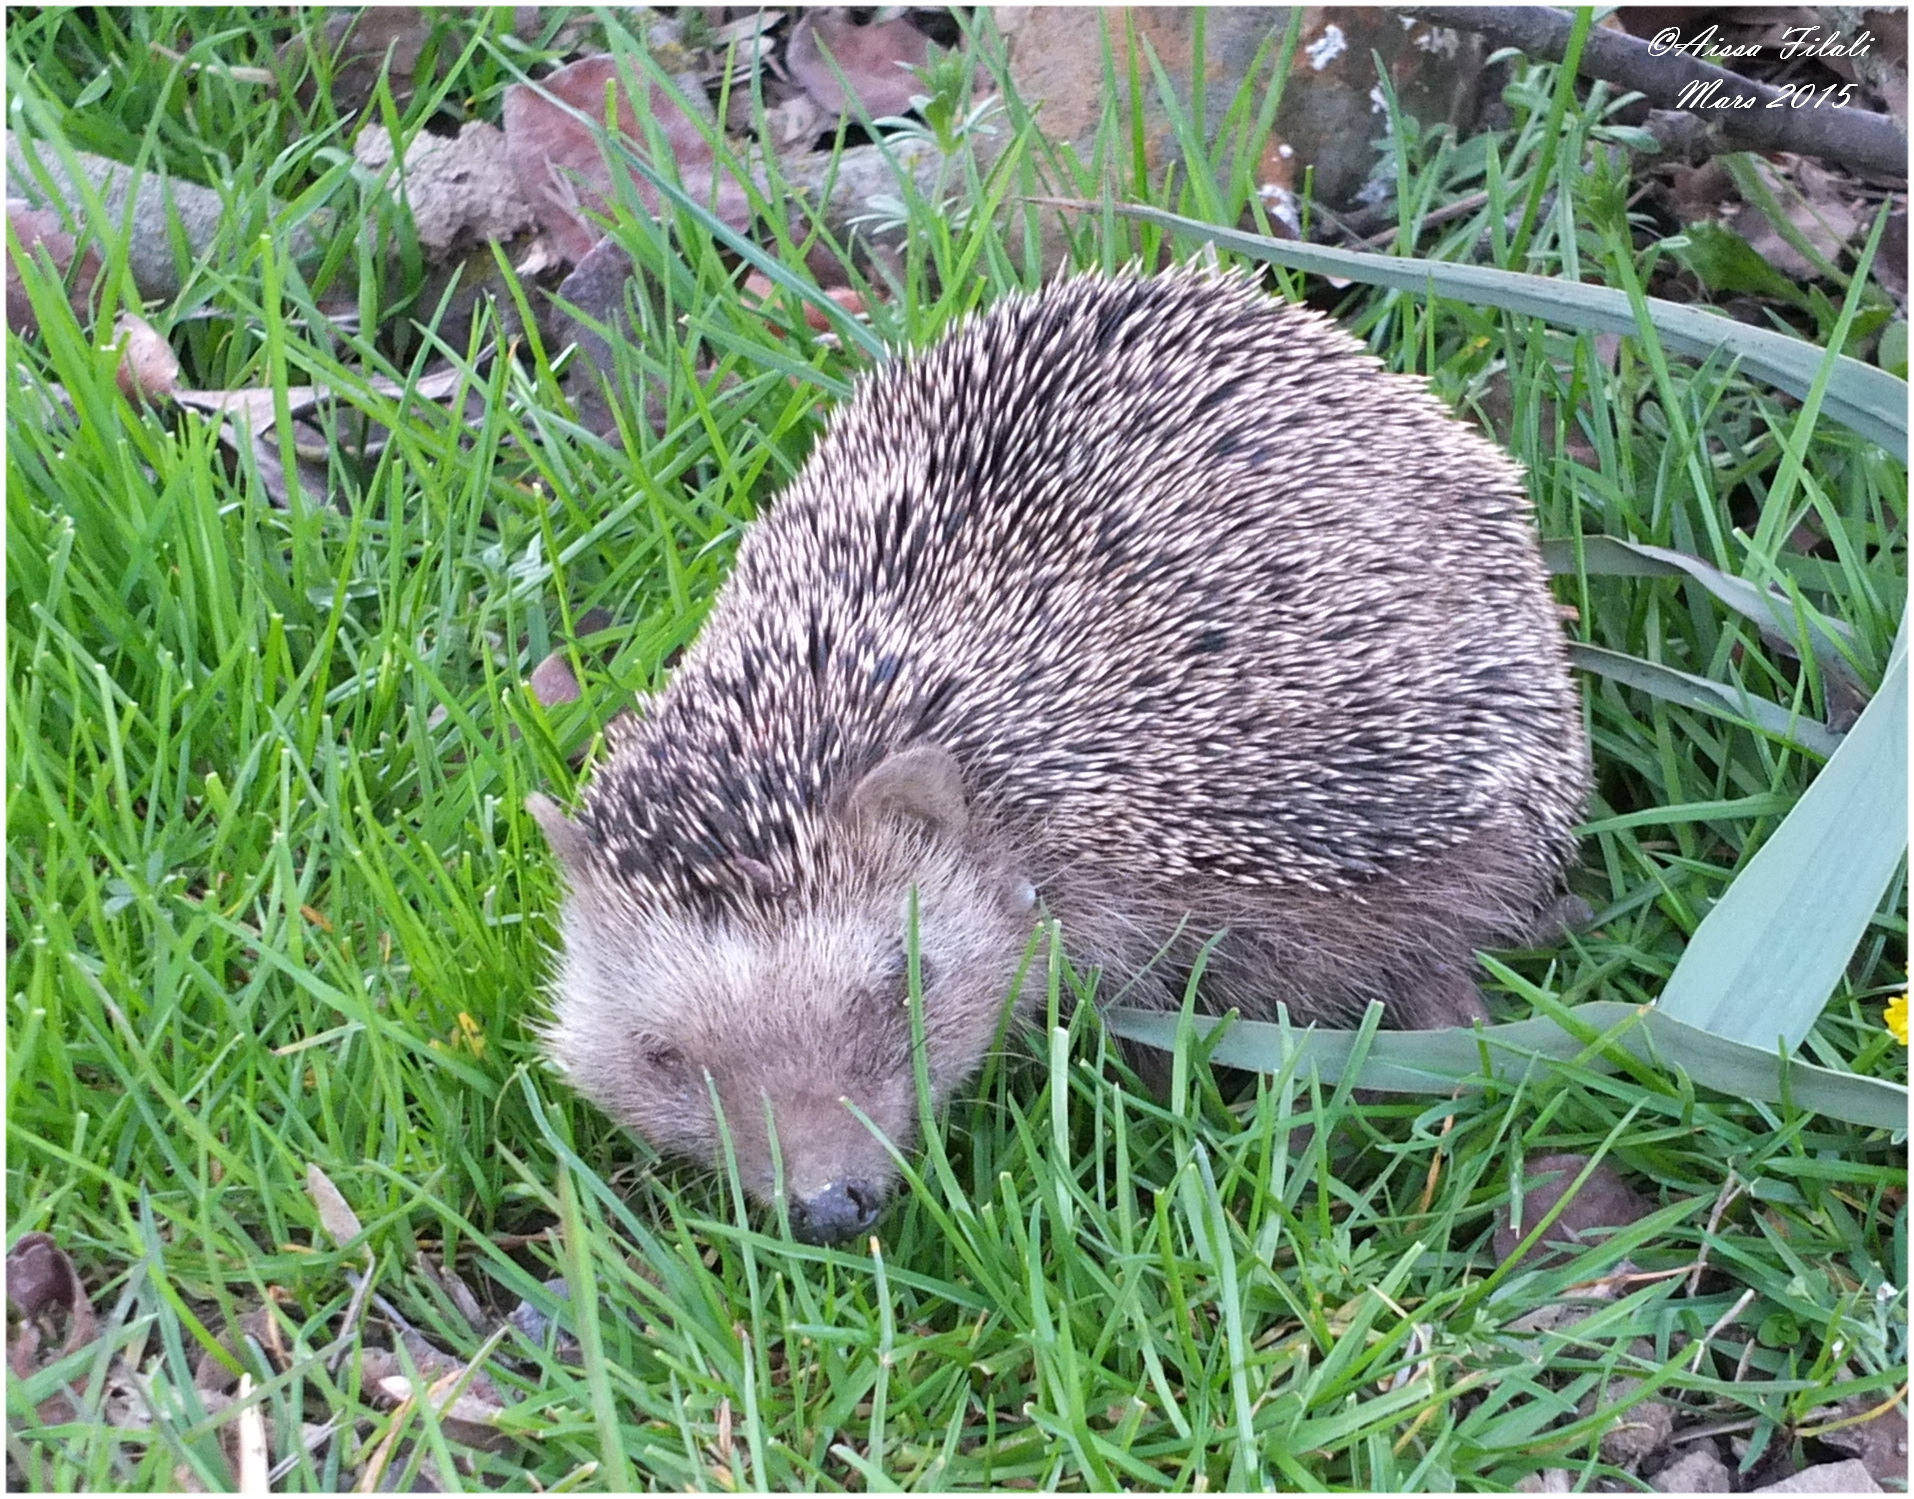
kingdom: Animalia
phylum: Chordata
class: Mammalia
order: Erinaceomorpha
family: Erinaceidae
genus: Atelerix
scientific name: Atelerix algirus
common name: North african hedgehog
